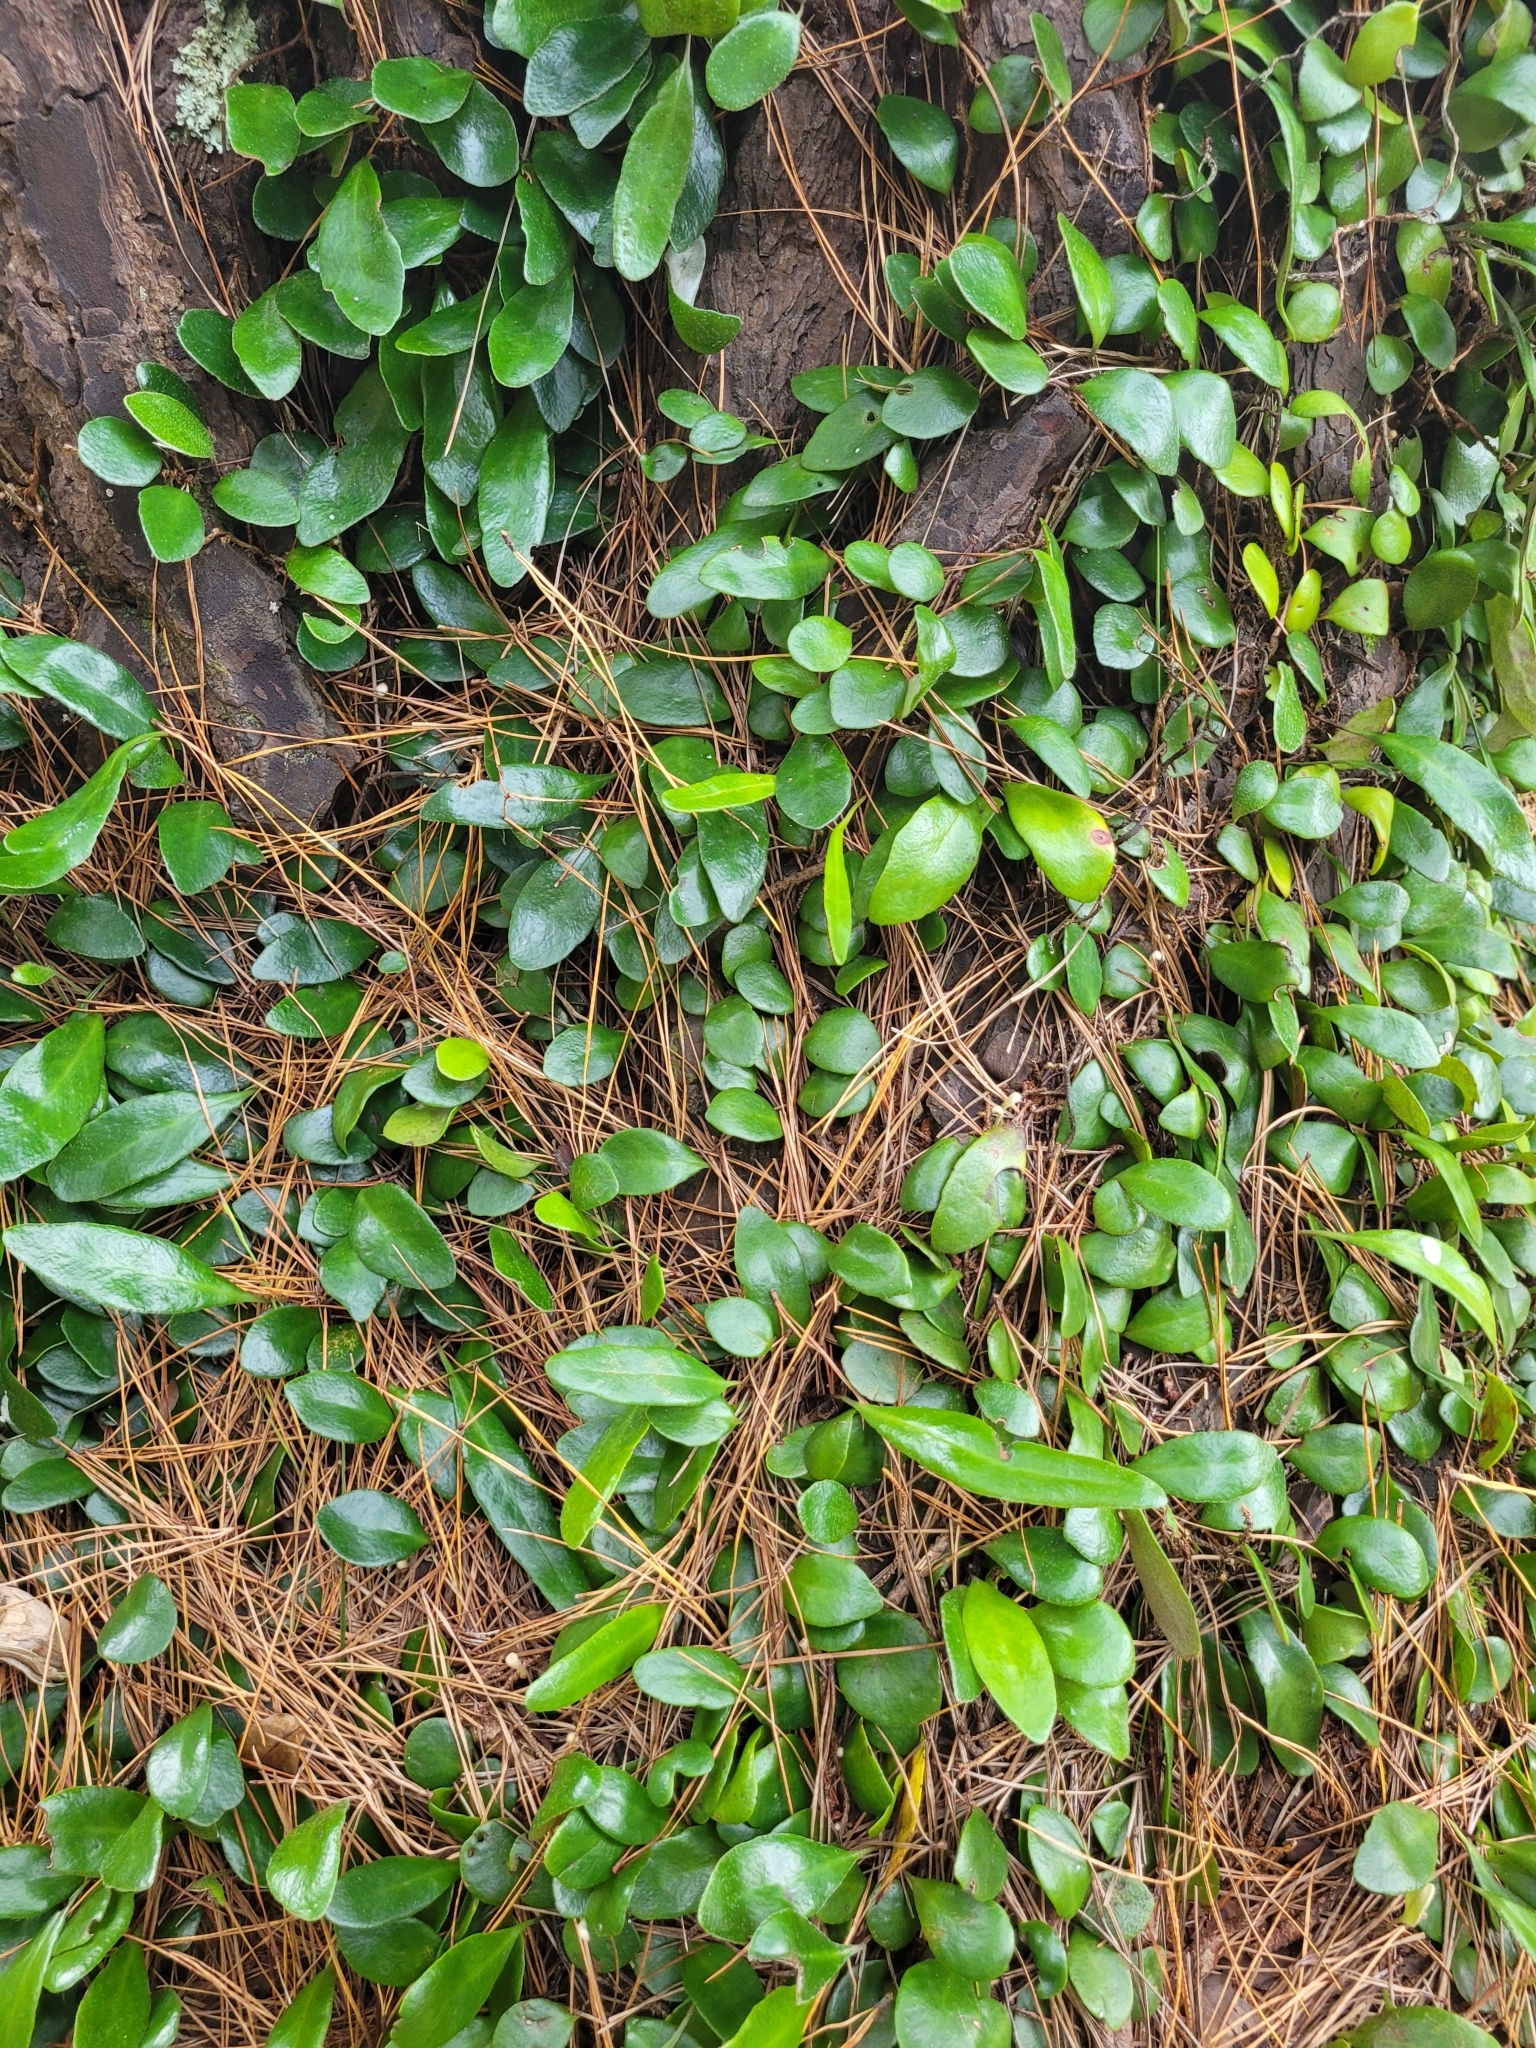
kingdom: Plantae
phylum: Tracheophyta
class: Polypodiopsida
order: Polypodiales
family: Polypodiaceae
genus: Pyrrosia
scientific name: Pyrrosia eleagnifolia
